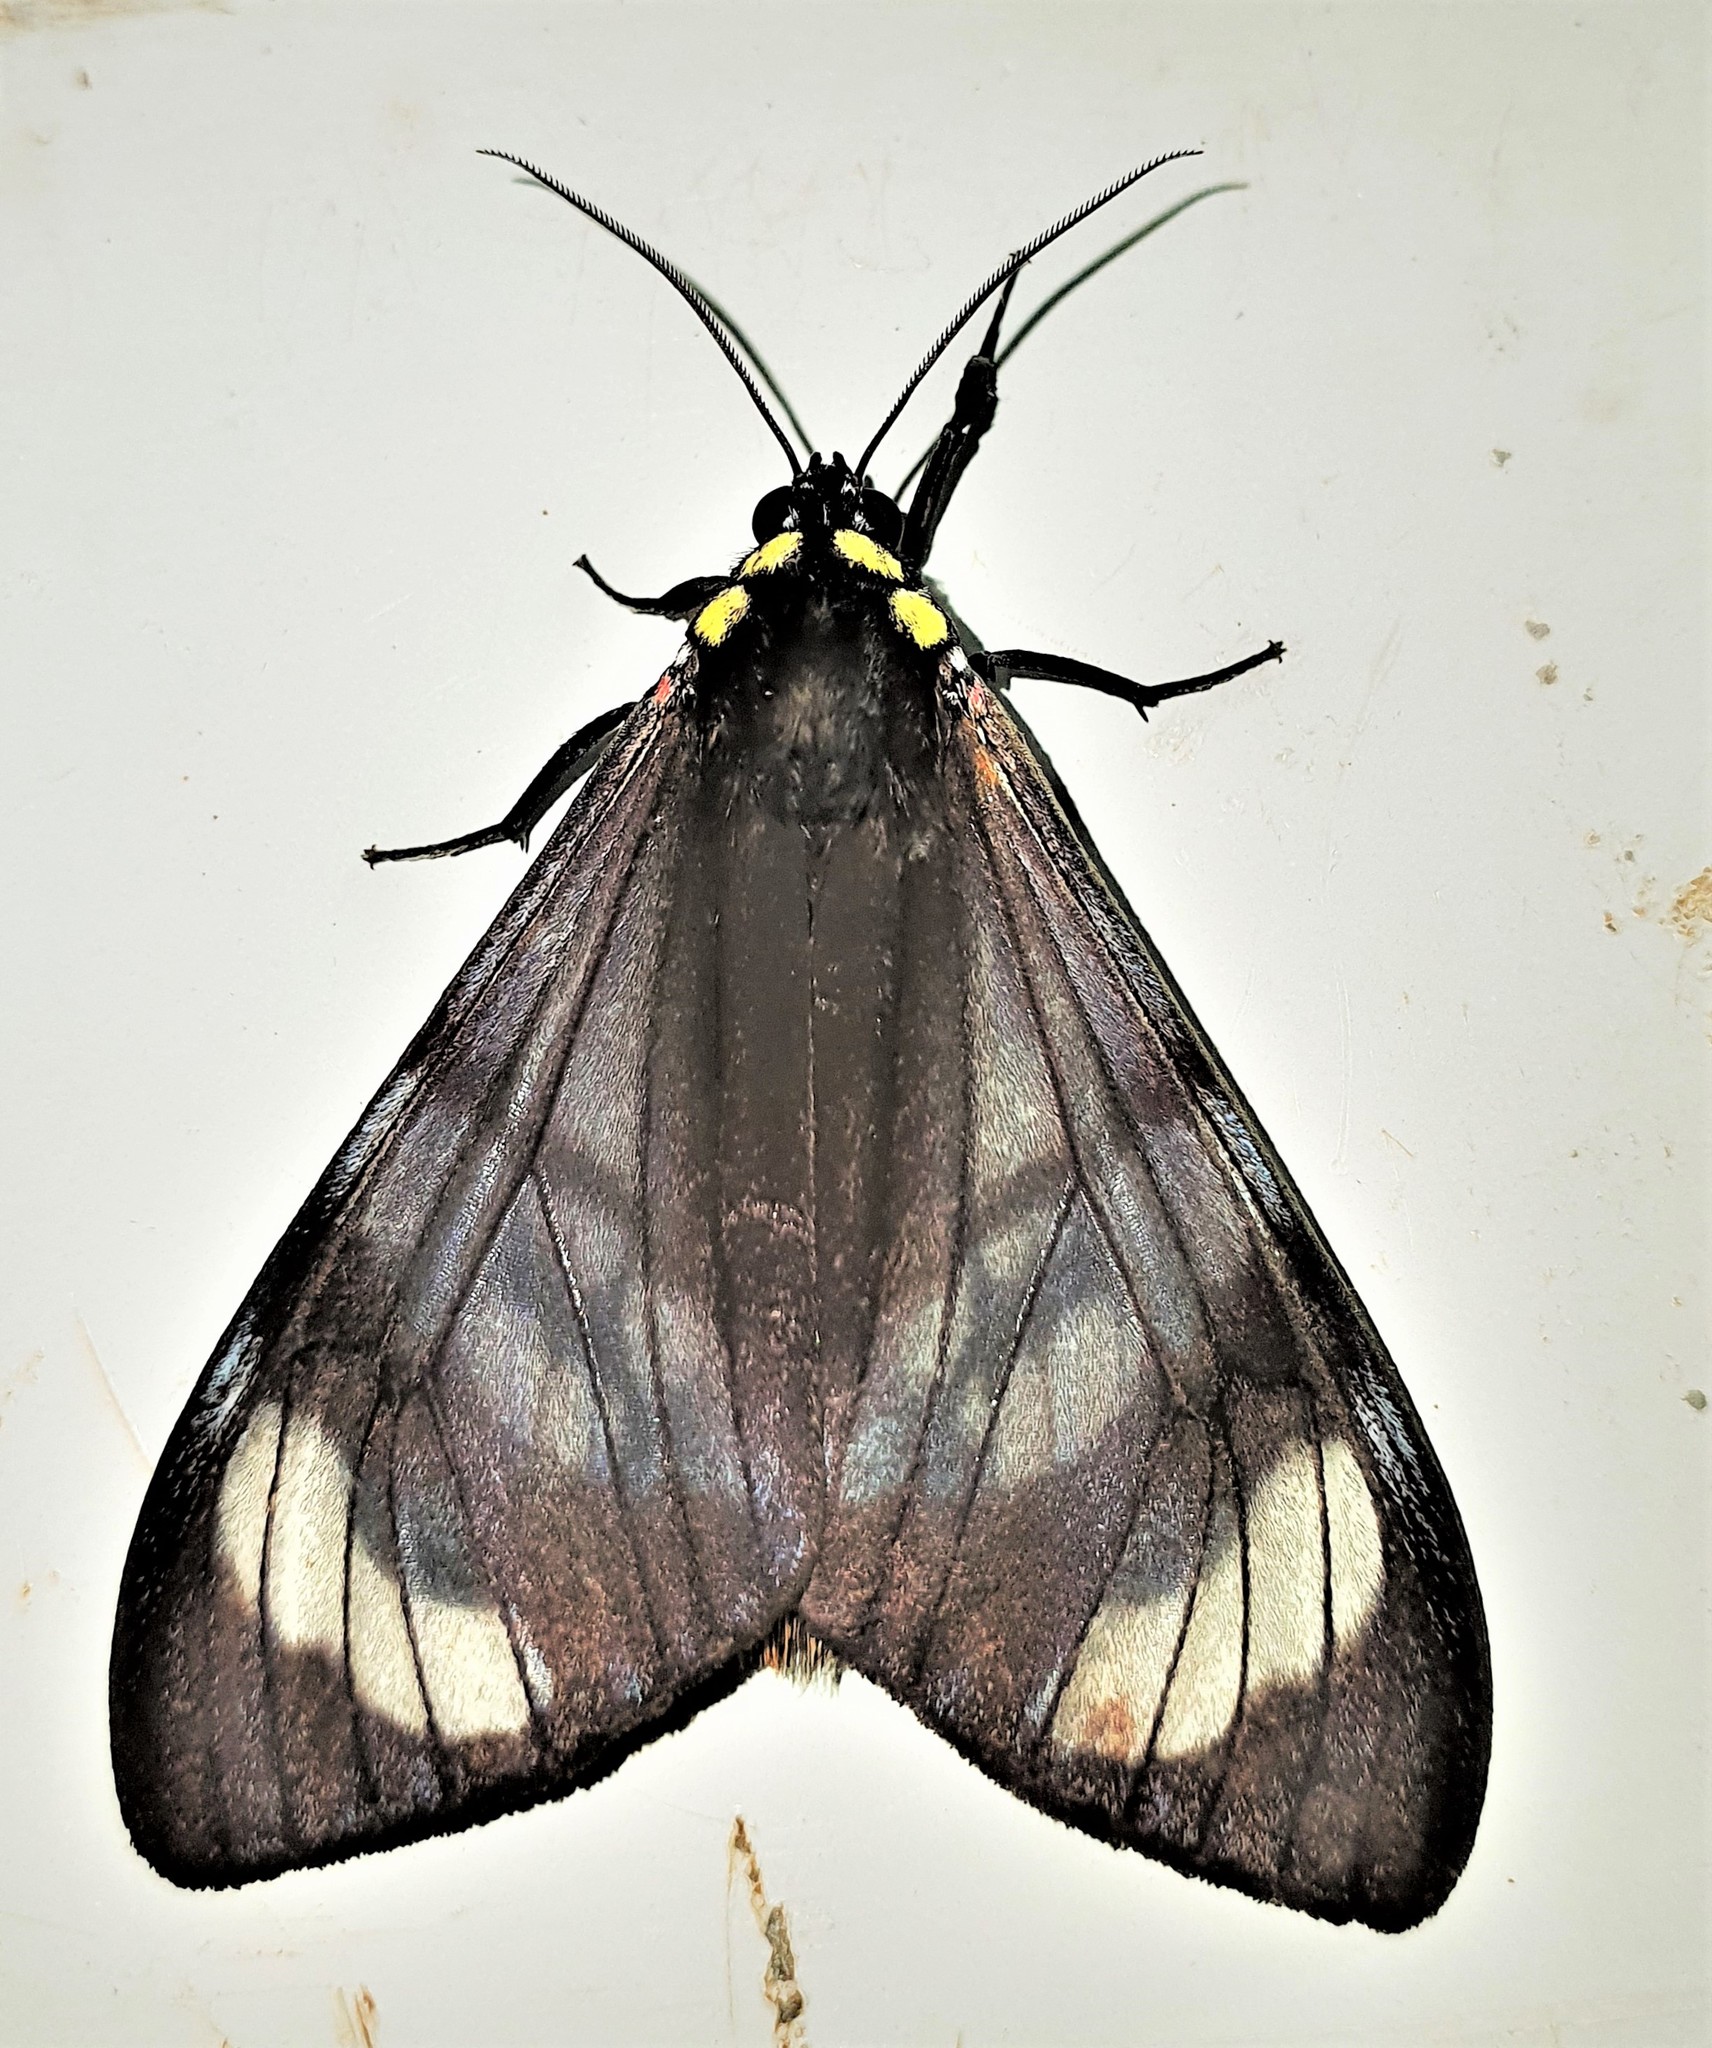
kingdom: Animalia
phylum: Arthropoda
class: Insecta
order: Lepidoptera
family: Erebidae
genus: Dysschema
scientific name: Dysschema tricolora
